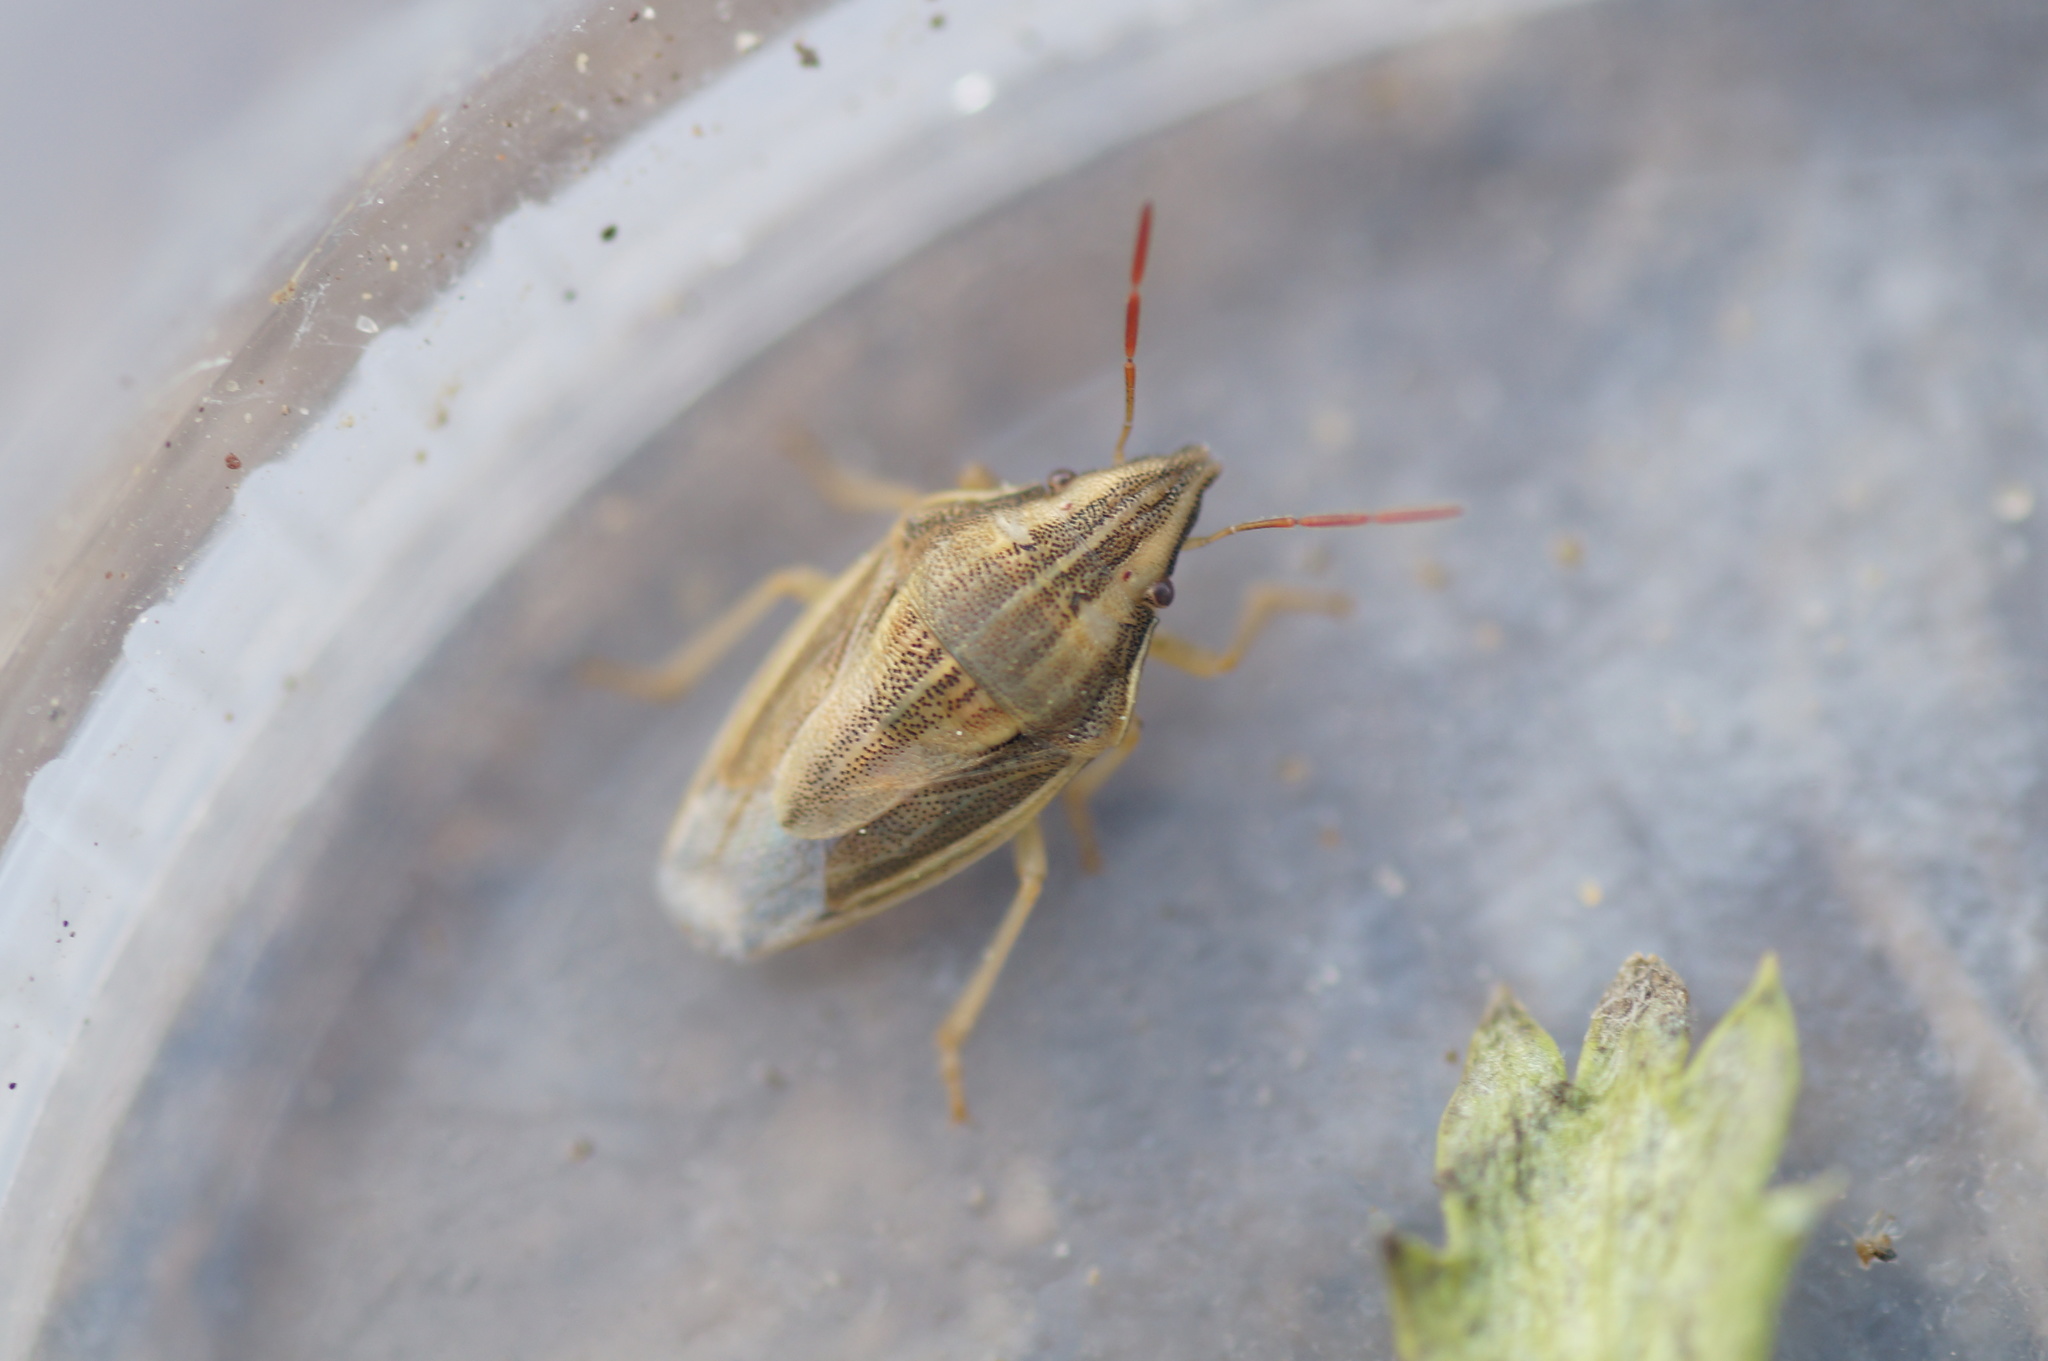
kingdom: Animalia
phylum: Arthropoda
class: Insecta
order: Hemiptera
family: Pentatomidae
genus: Aelia
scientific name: Aelia acuminata
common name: Bishop's mitre
